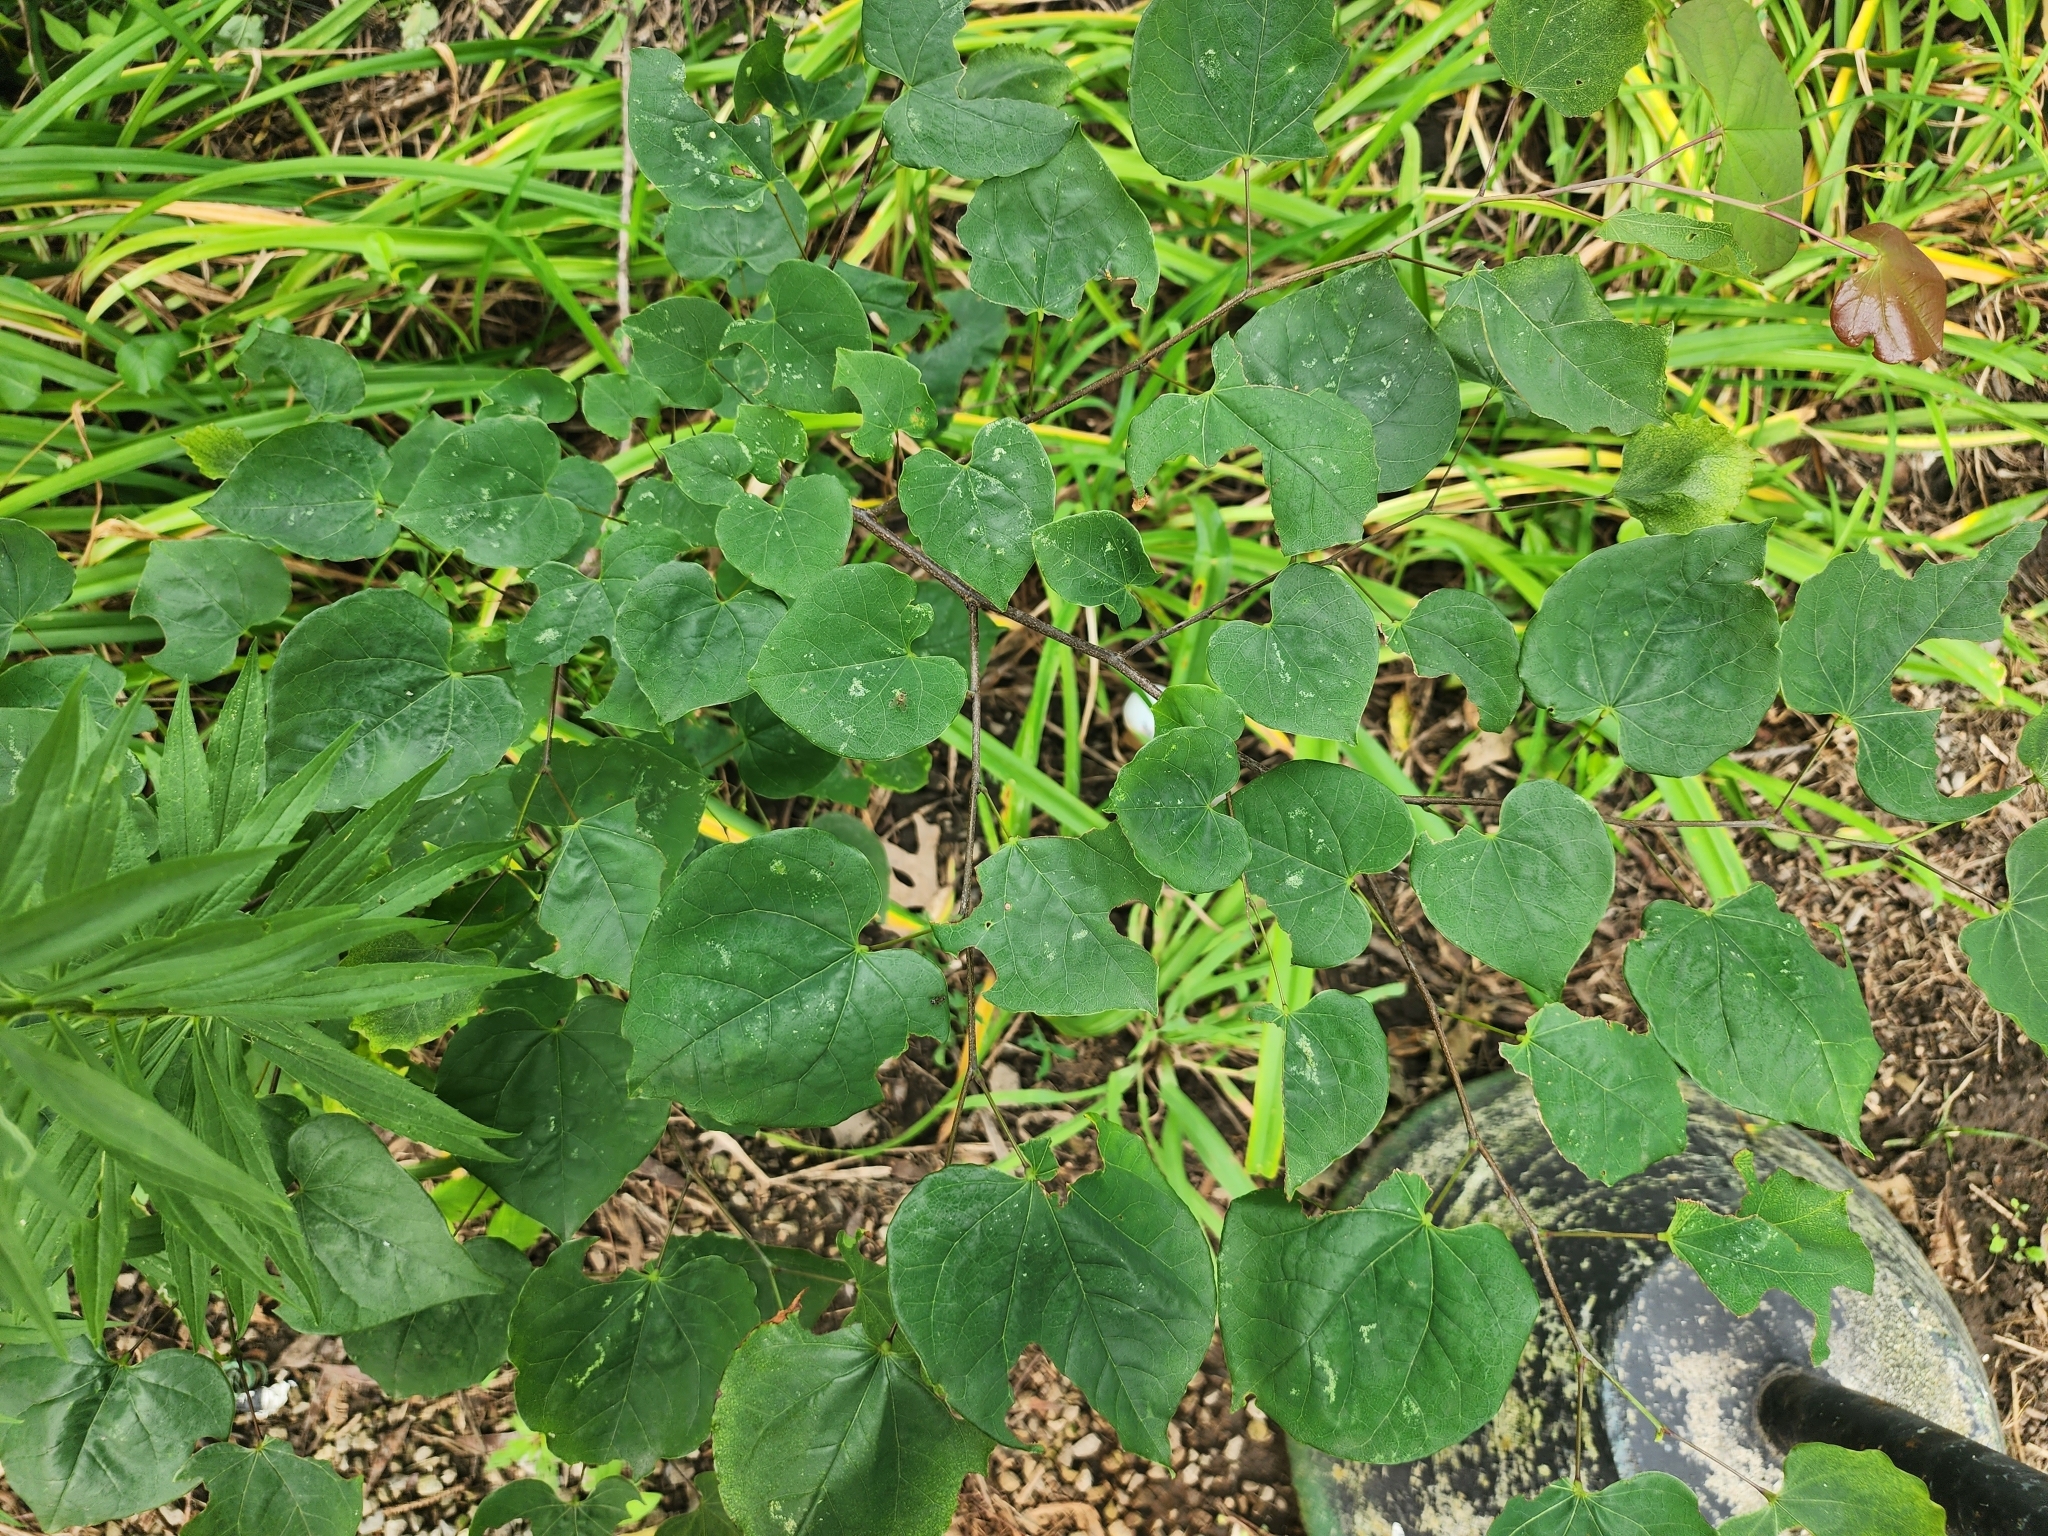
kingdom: Plantae
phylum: Tracheophyta
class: Magnoliopsida
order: Fabales
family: Fabaceae
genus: Cercis
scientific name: Cercis canadensis
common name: Eastern redbud
